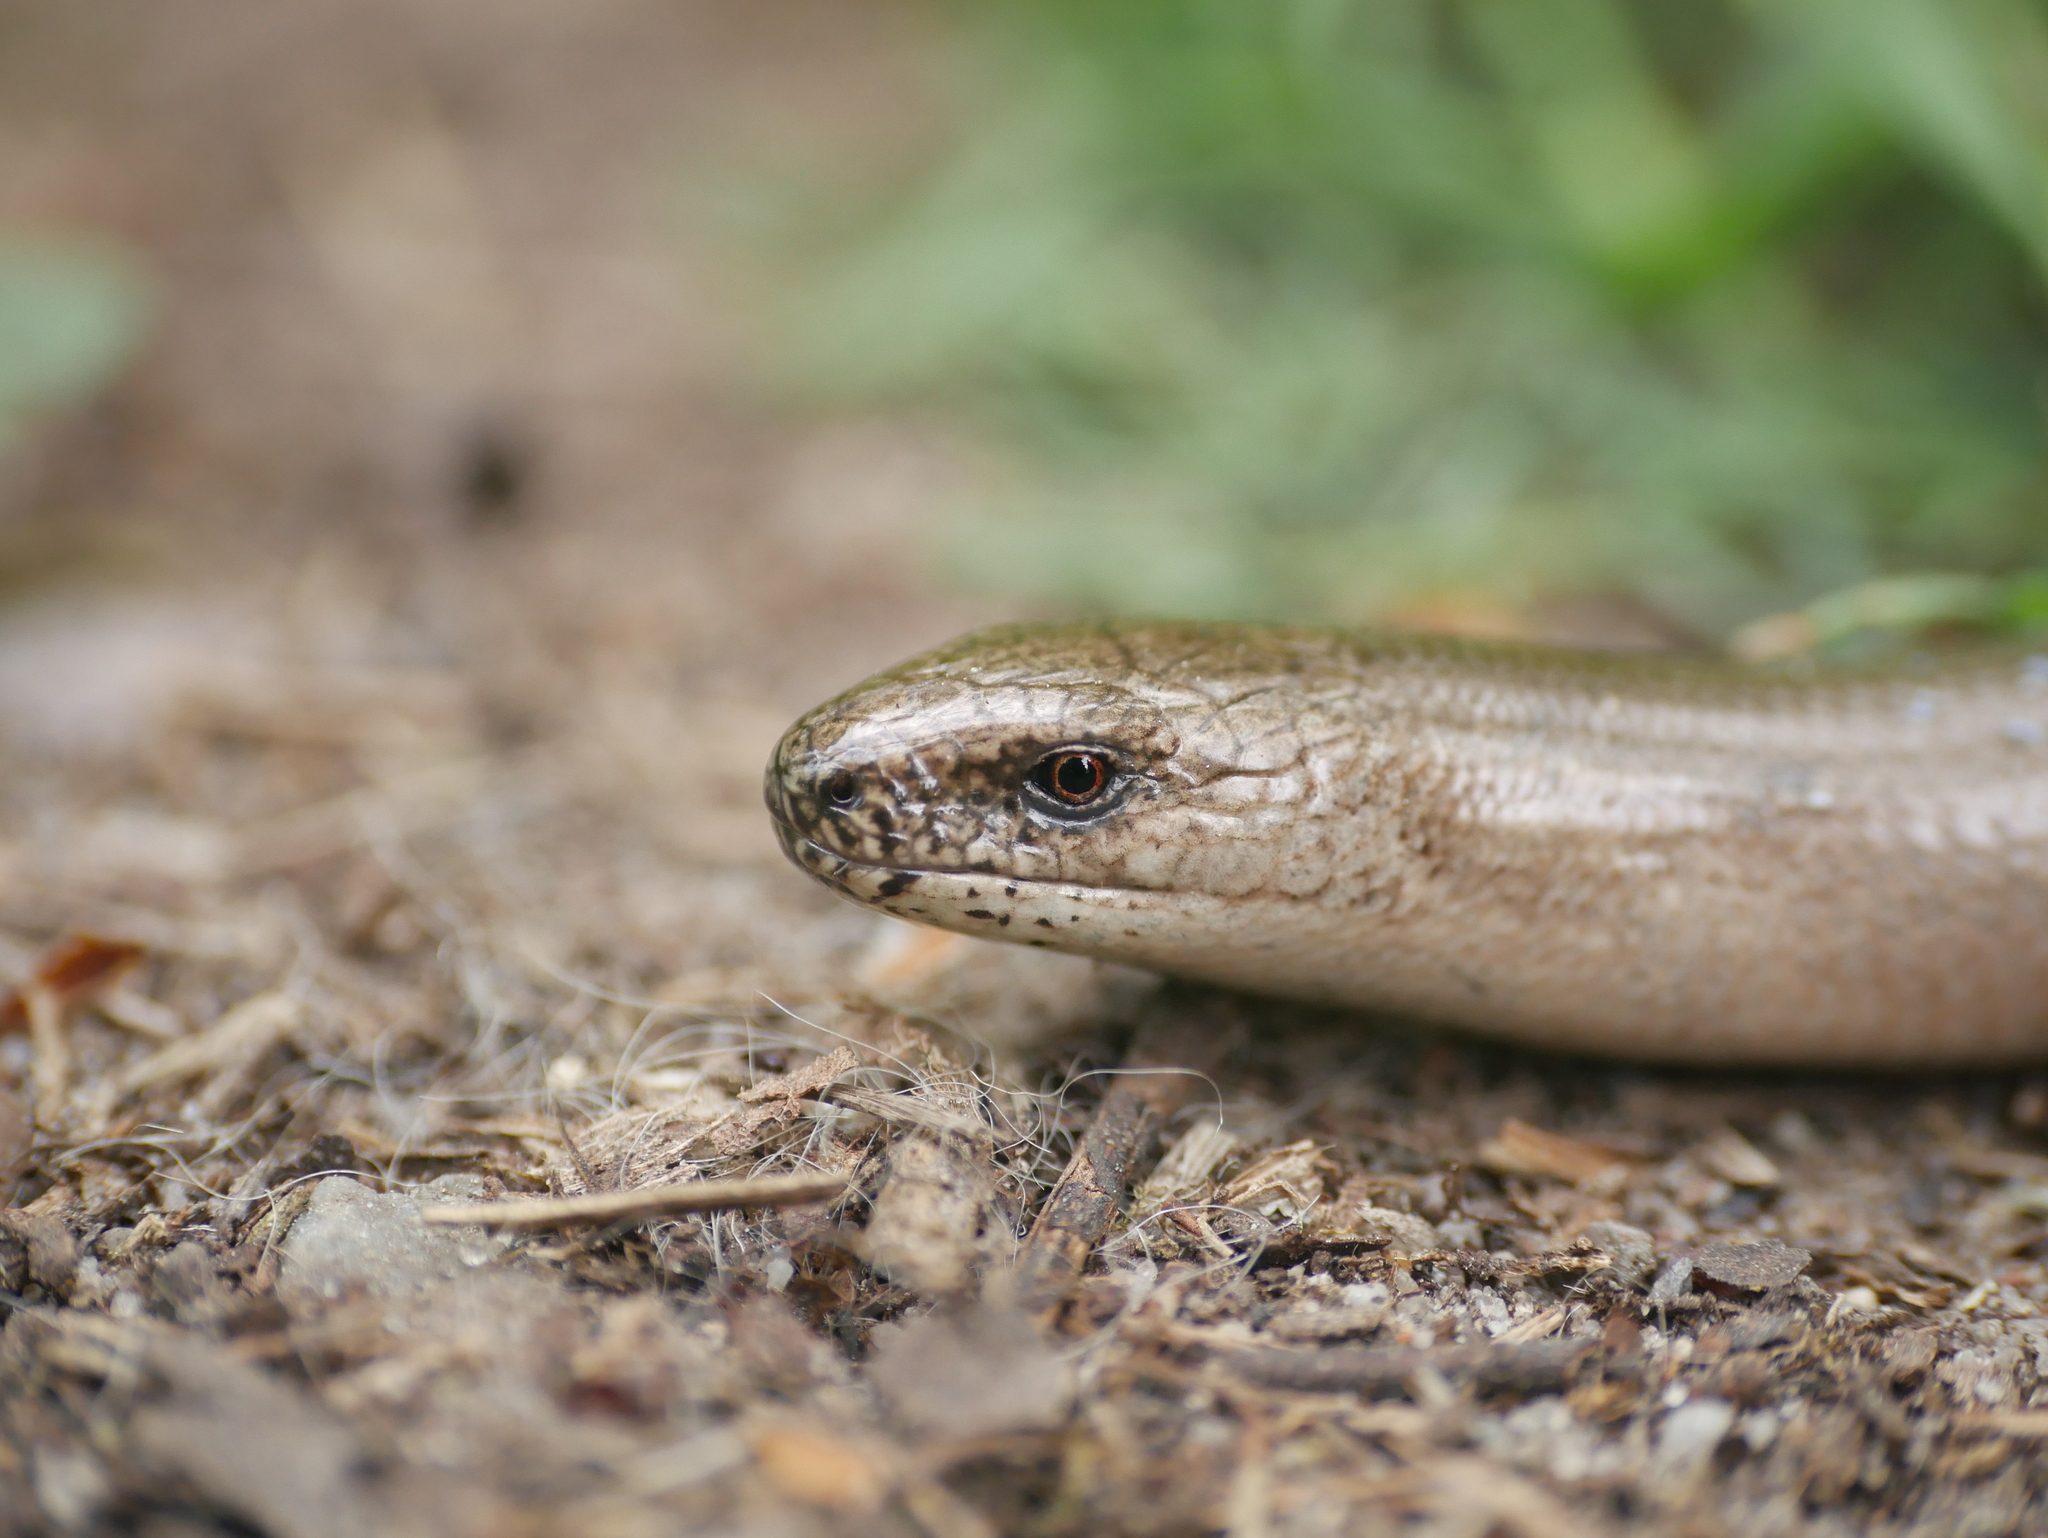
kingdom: Animalia
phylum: Chordata
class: Squamata
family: Anguidae
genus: Anguis
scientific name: Anguis fragilis
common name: Slow worm
